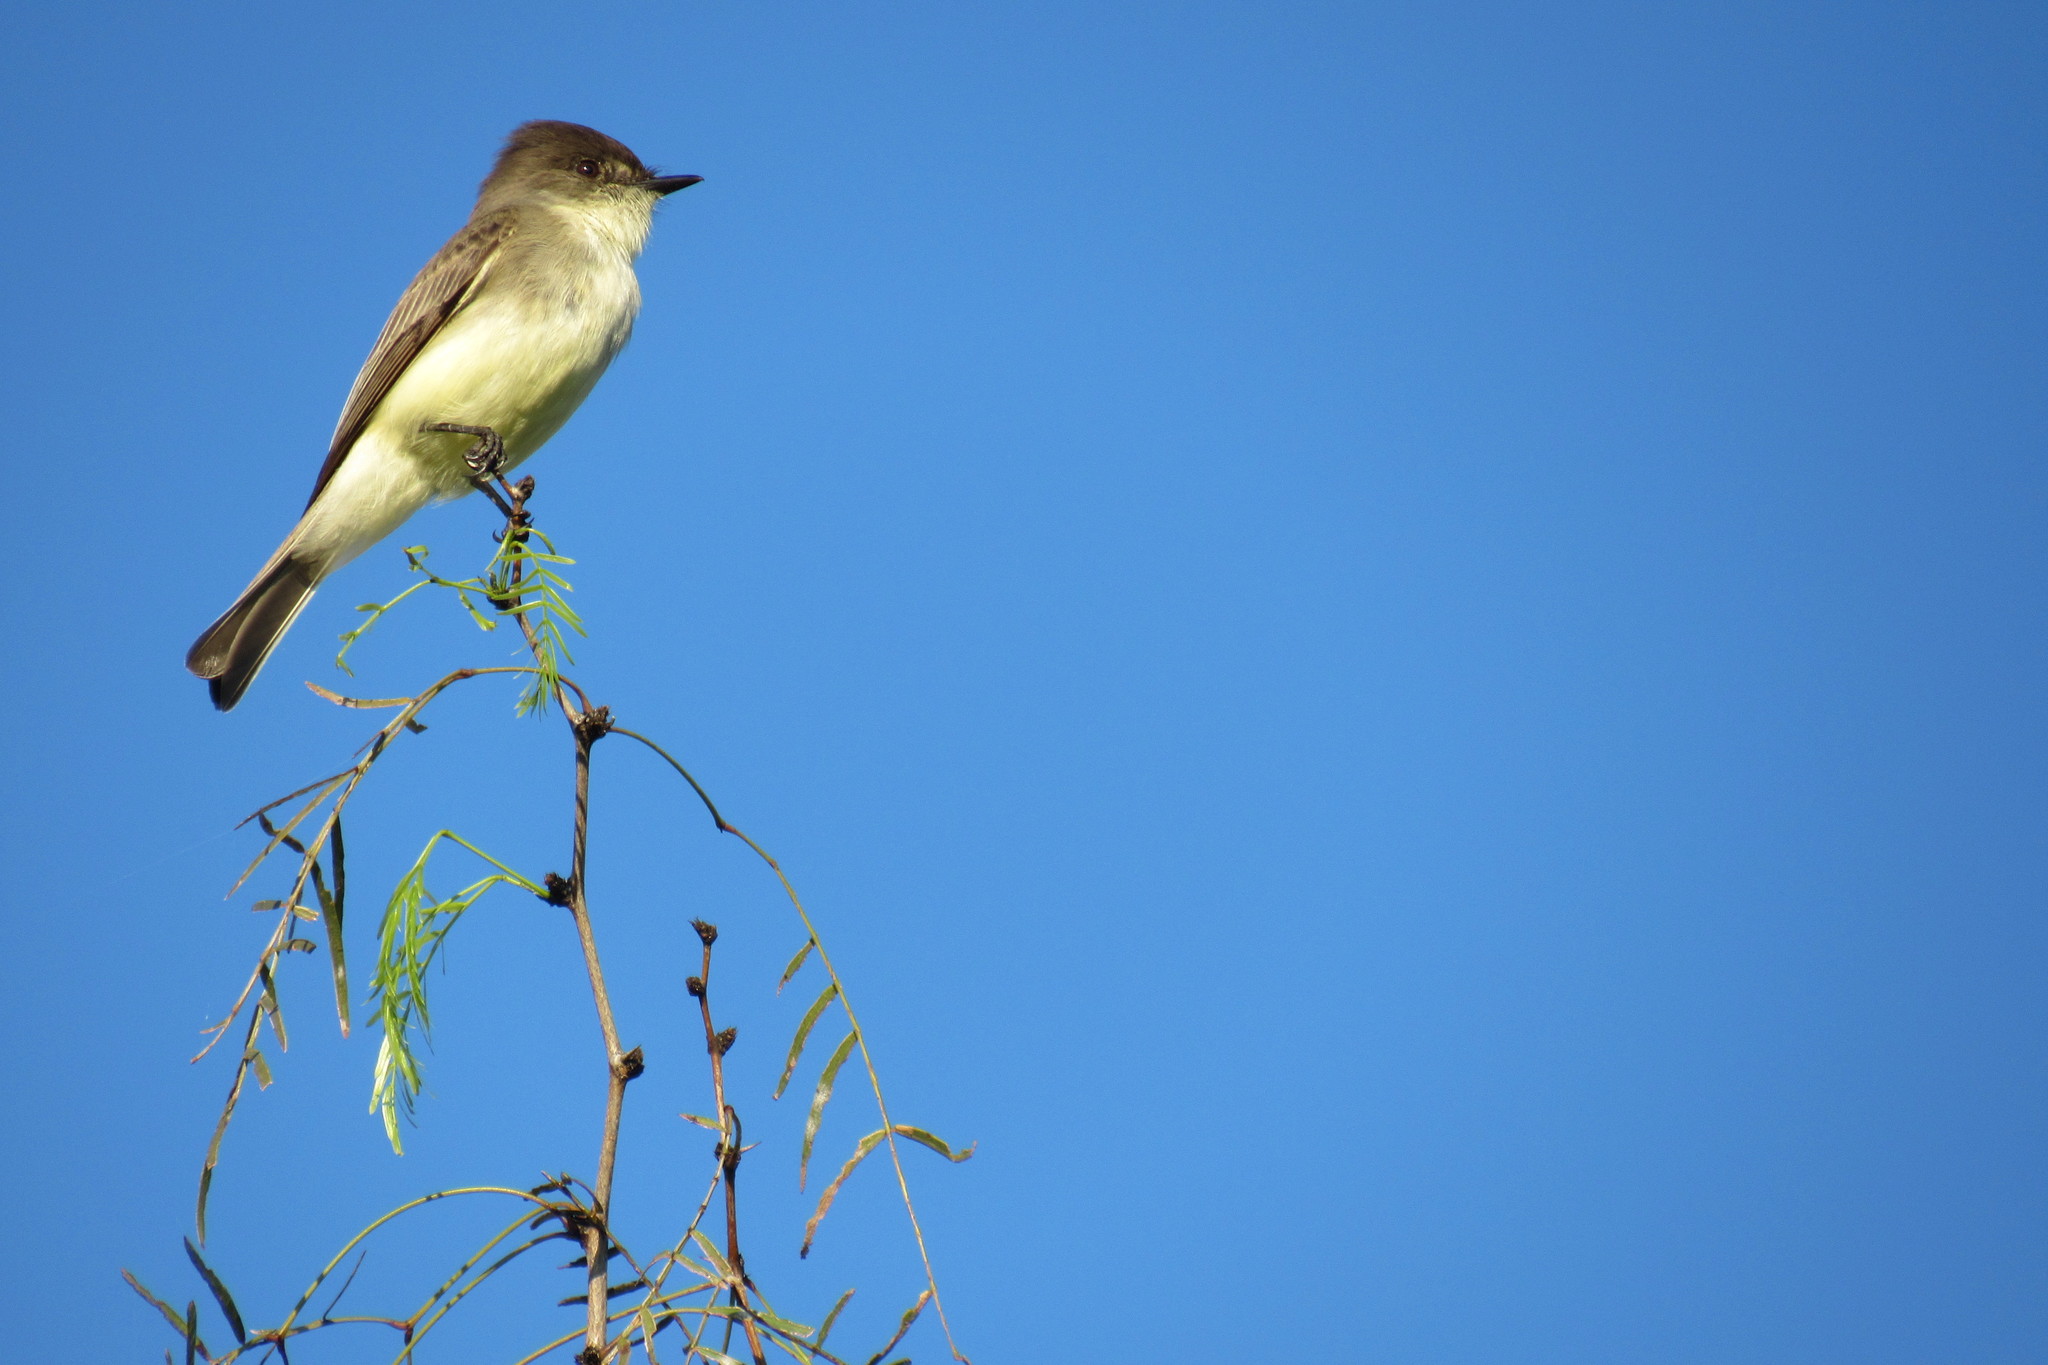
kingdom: Animalia
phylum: Chordata
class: Aves
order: Passeriformes
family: Tyrannidae
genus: Sayornis
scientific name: Sayornis phoebe
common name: Eastern phoebe
